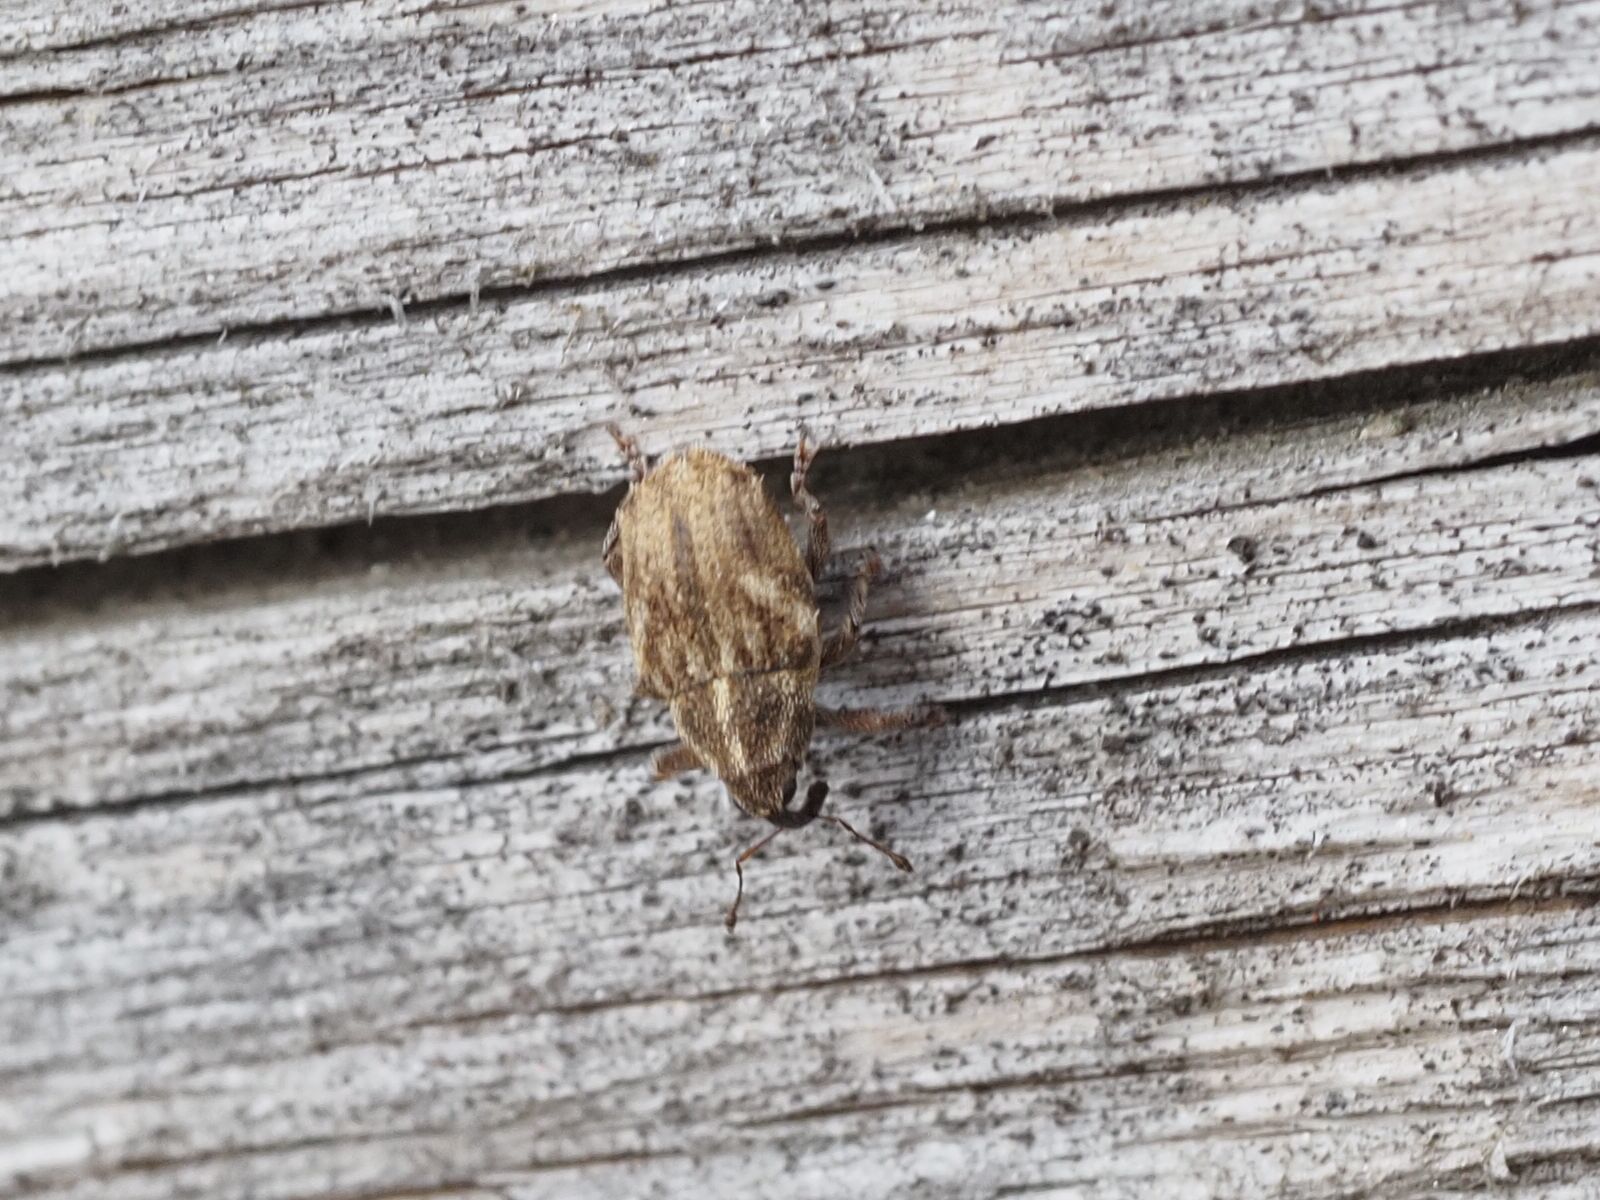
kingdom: Animalia
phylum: Arthropoda
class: Insecta
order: Coleoptera
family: Curculionidae
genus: Trichosirocalus
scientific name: Trichosirocalus troglodytes
